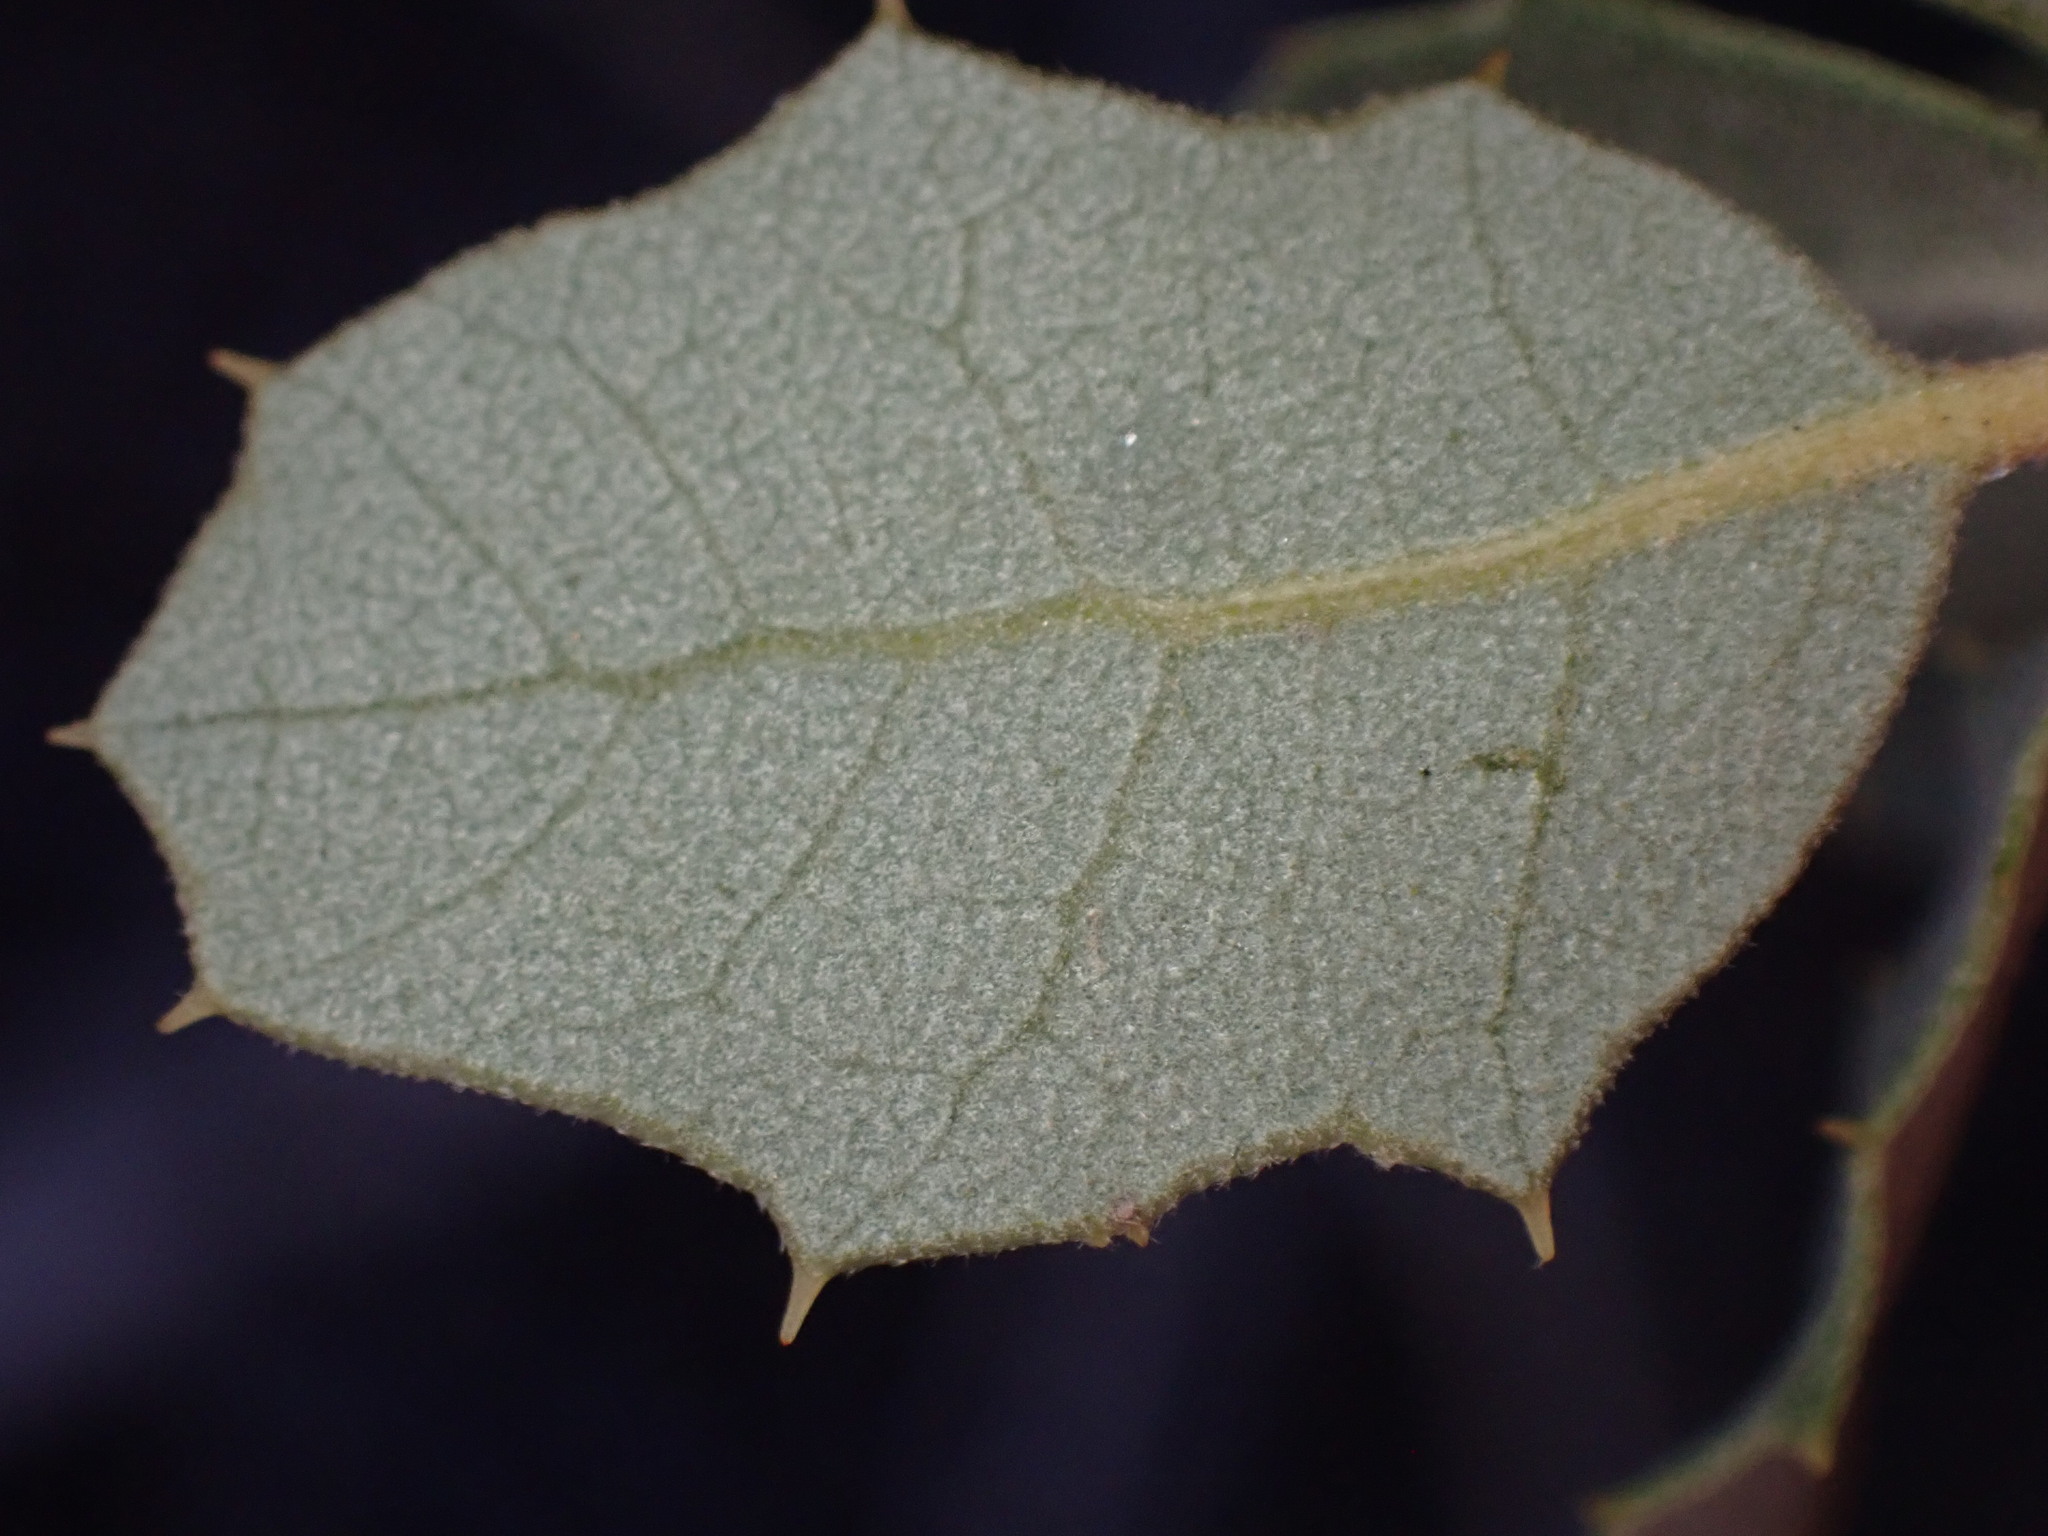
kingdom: Plantae
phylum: Tracheophyta
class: Magnoliopsida
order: Fagales
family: Fagaceae
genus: Quercus
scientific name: Quercus cornelius-mulleri
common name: Muller oak
